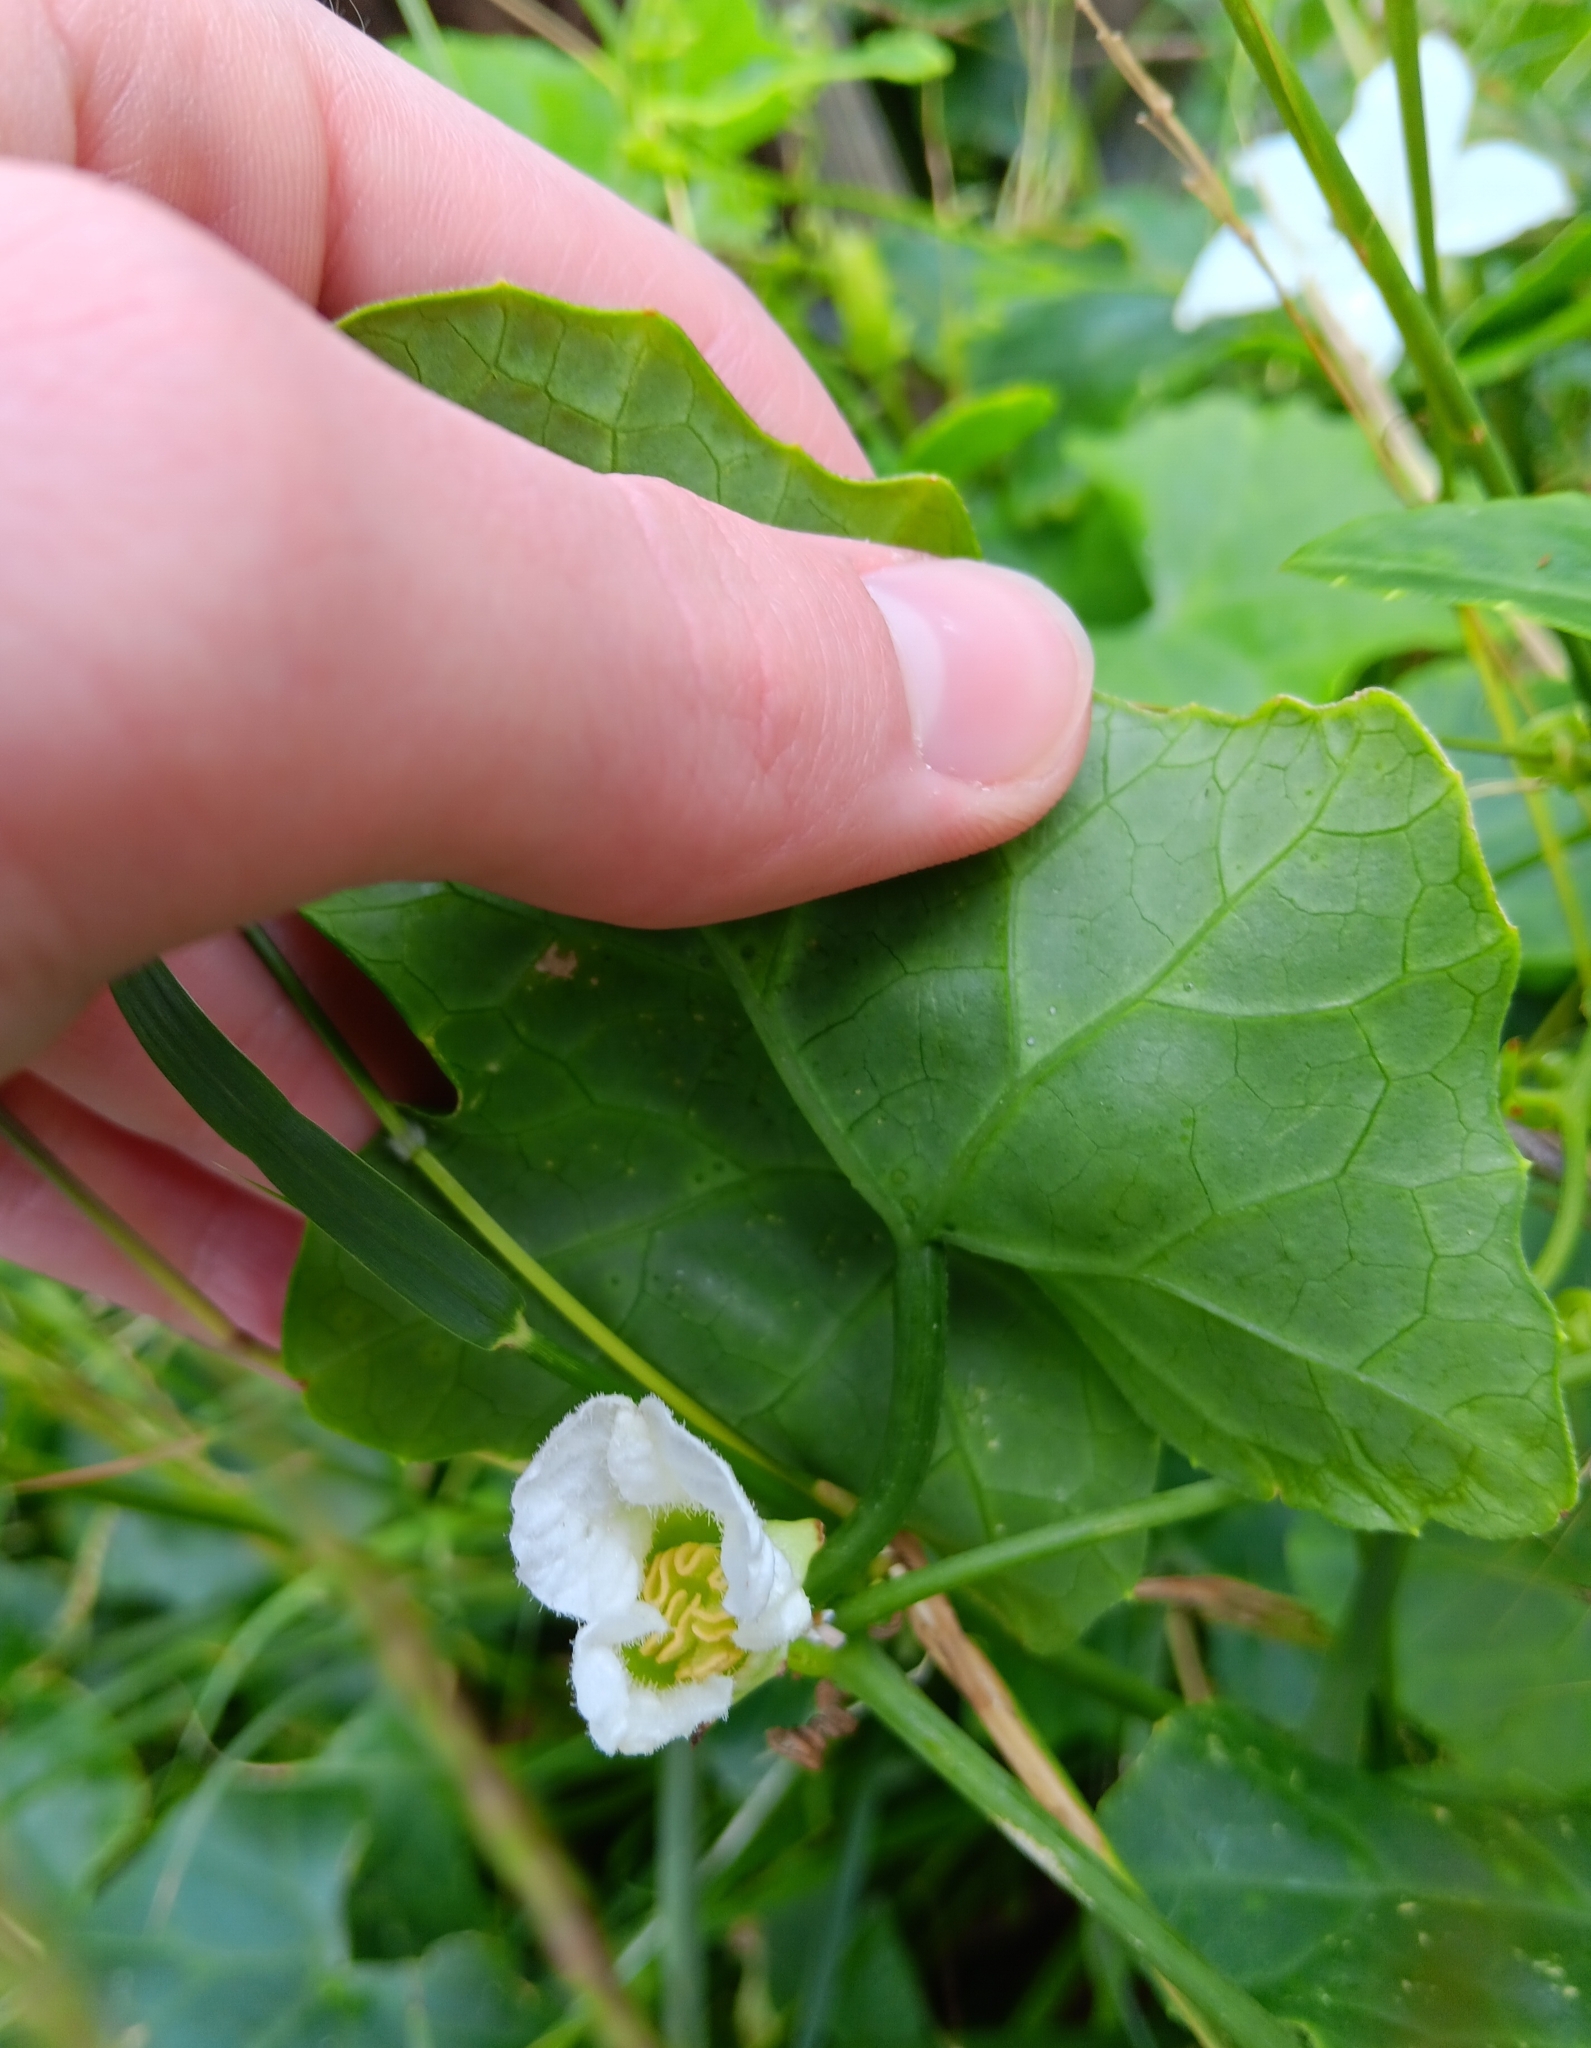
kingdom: Plantae
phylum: Tracheophyta
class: Magnoliopsida
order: Cucurbitales
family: Cucurbitaceae
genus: Coccinia
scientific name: Coccinia grandis
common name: Ivy gourd
